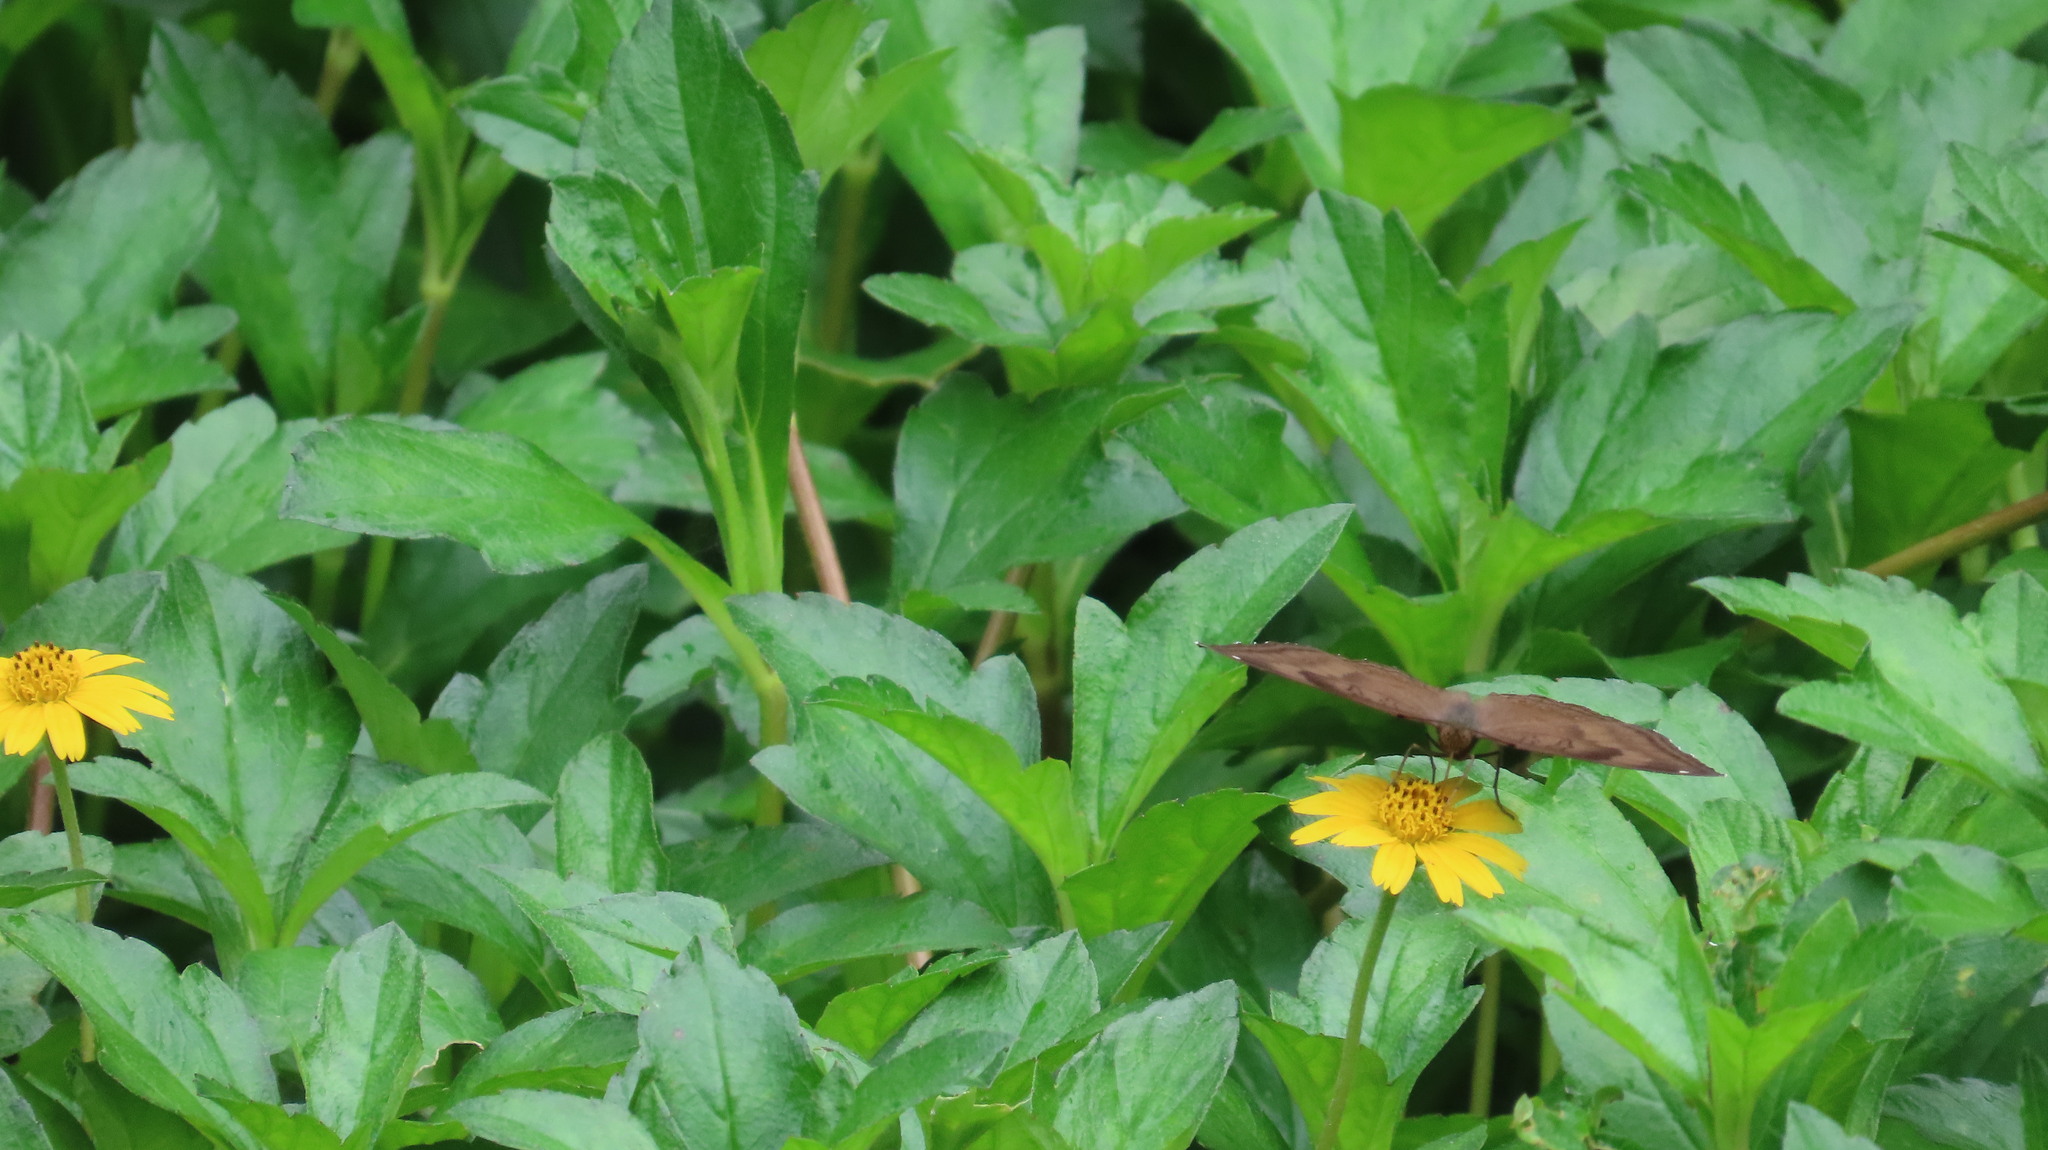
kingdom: Animalia
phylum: Arthropoda
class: Insecta
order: Lepidoptera
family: Nymphalidae
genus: Junonia
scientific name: Junonia iphita
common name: Chocolate pansy
